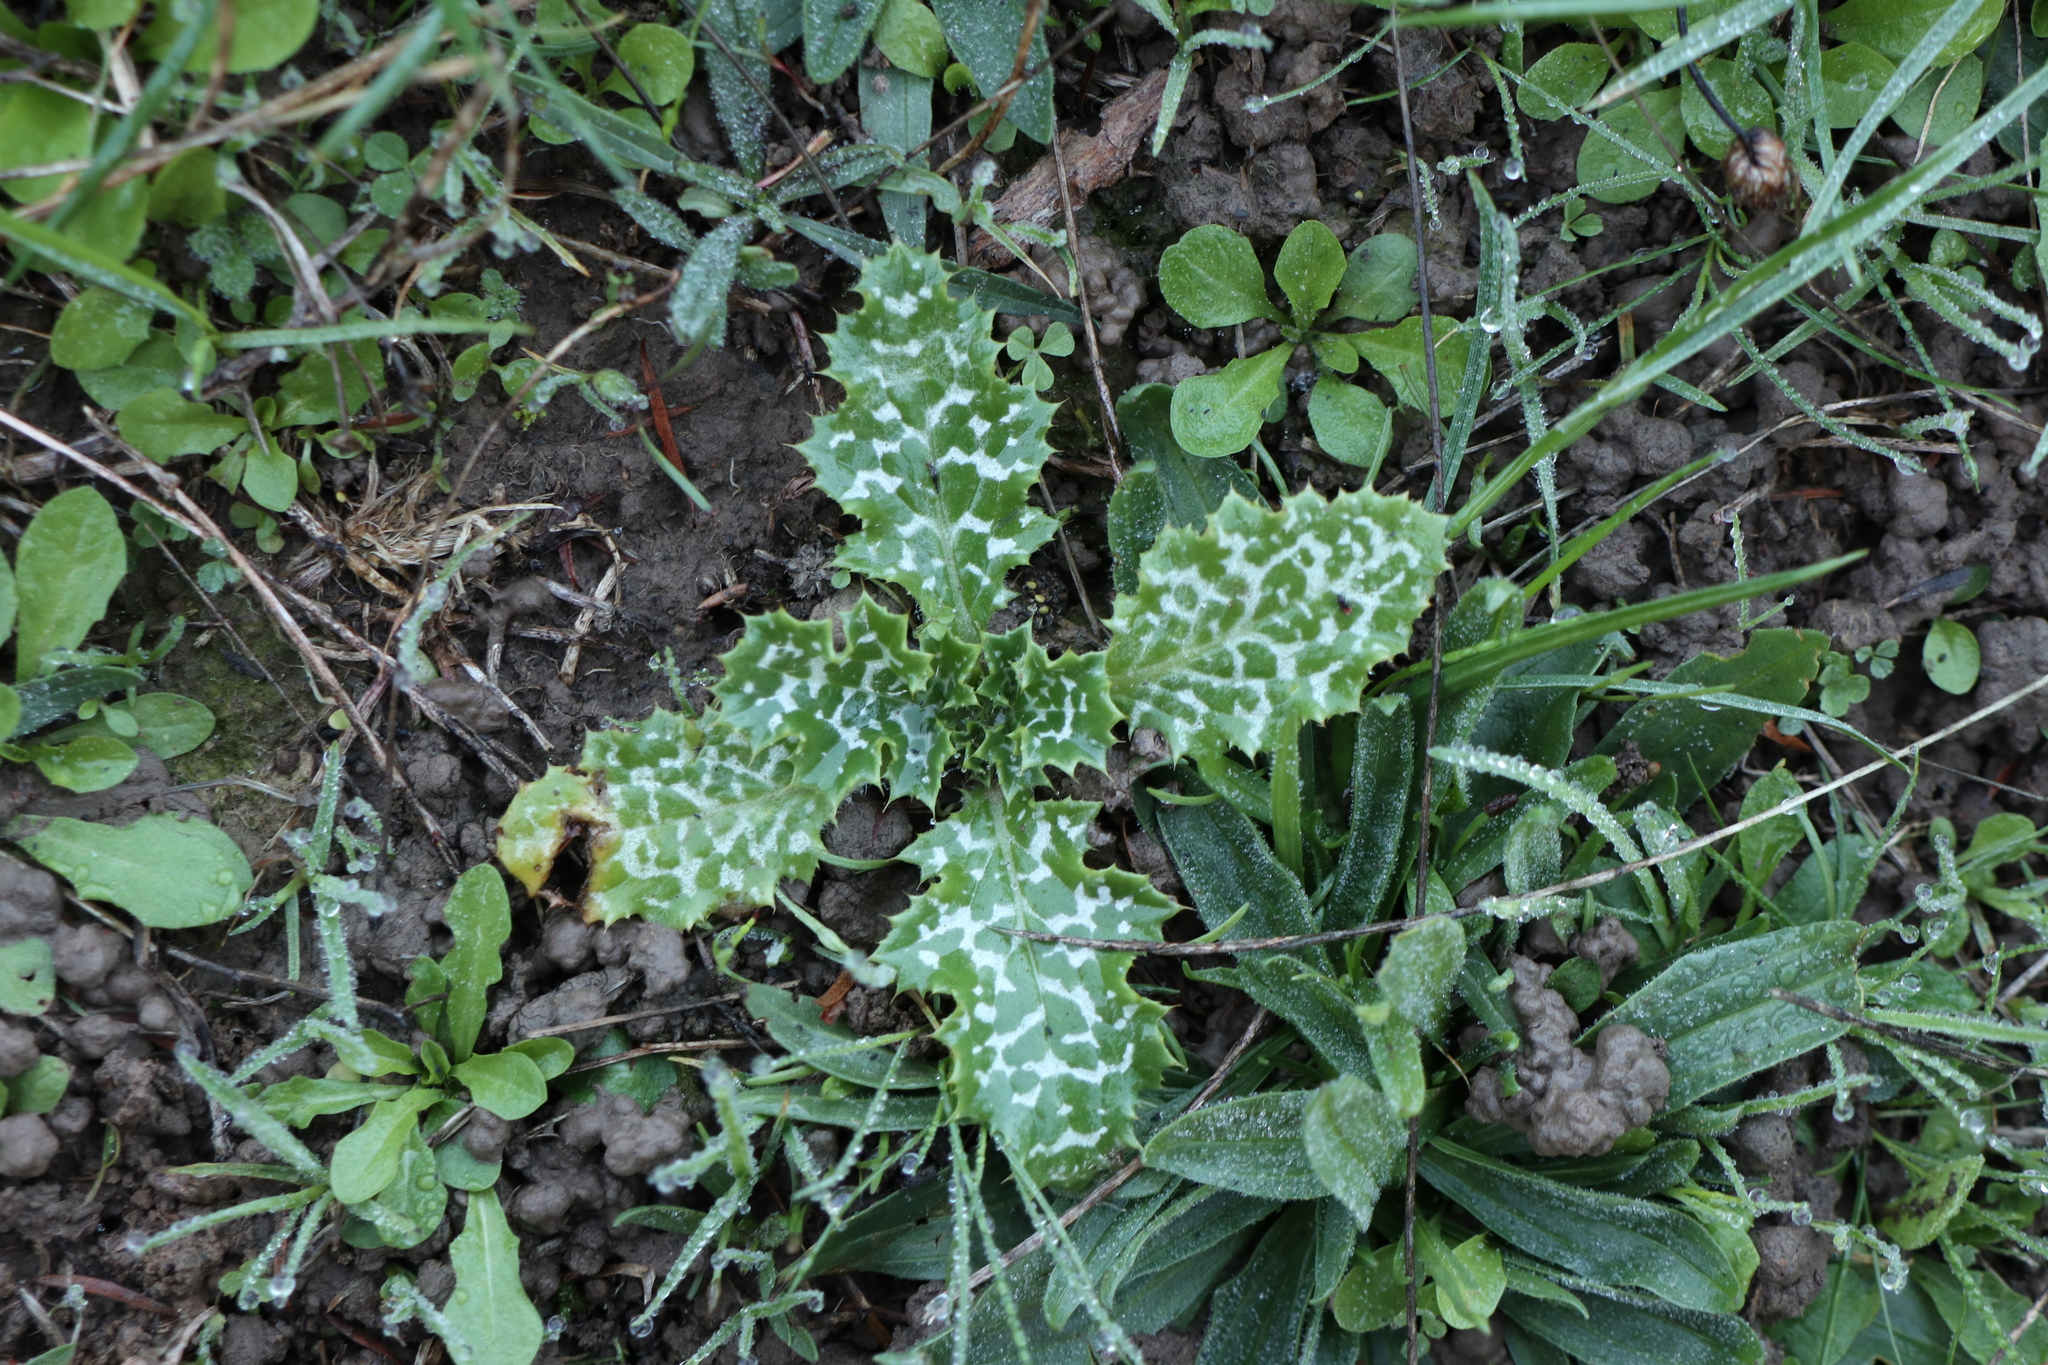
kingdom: Plantae
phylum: Tracheophyta
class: Magnoliopsida
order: Asterales
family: Asteraceae
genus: Silybum
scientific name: Silybum marianum
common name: Milk thistle
